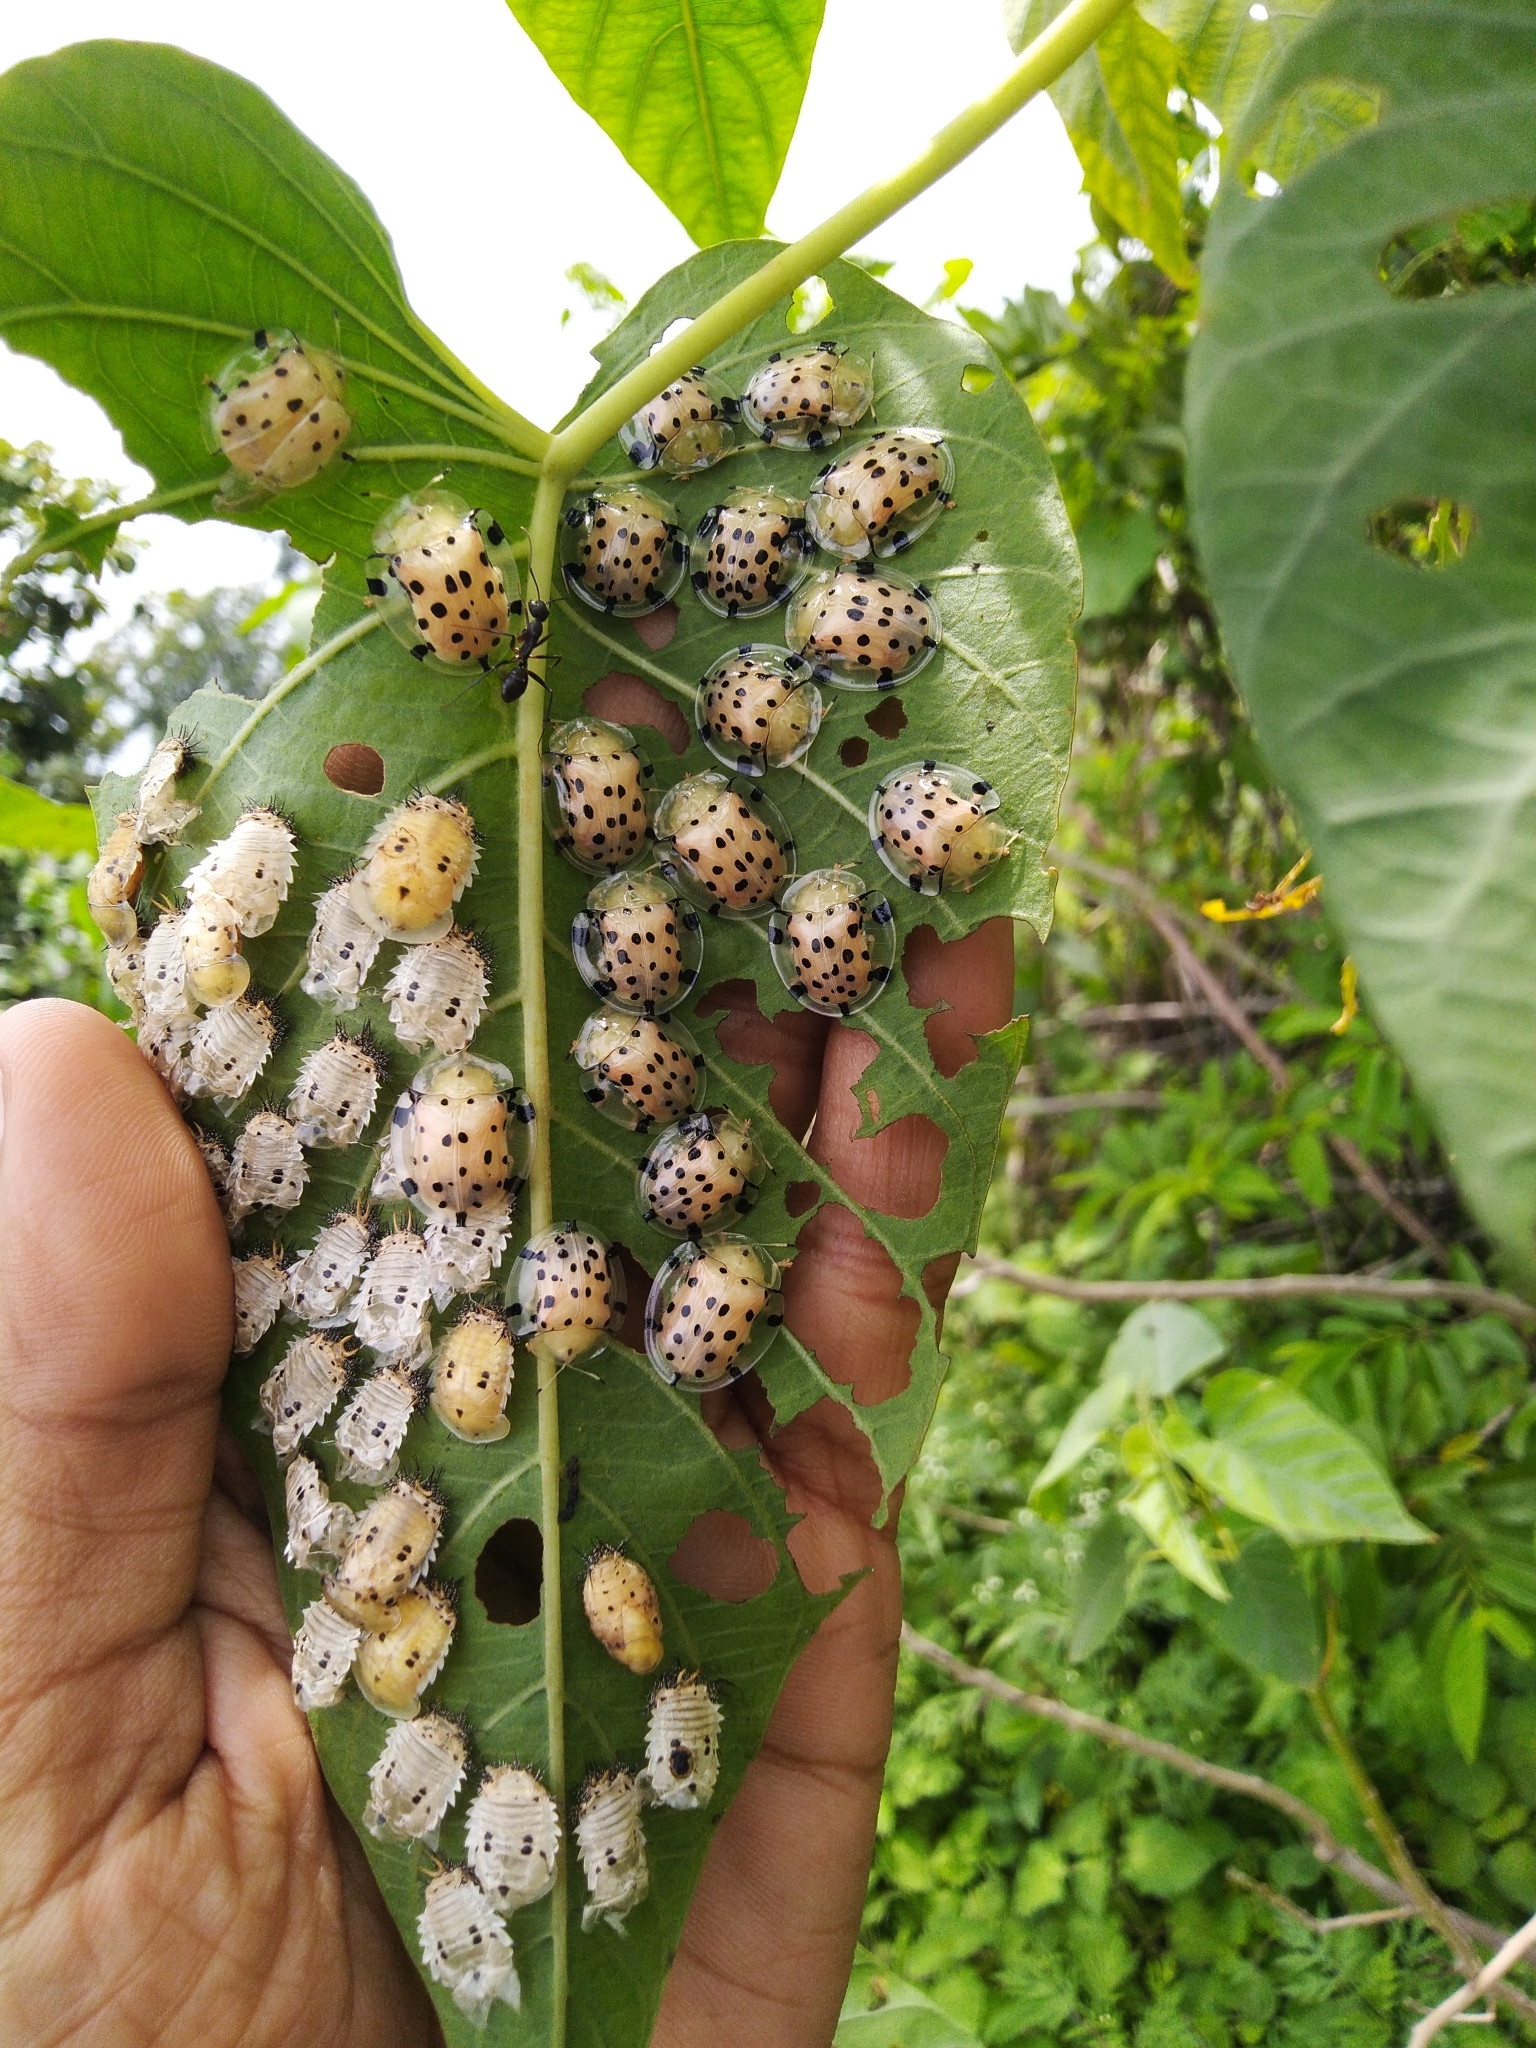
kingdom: Animalia
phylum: Arthropoda
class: Insecta
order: Coleoptera
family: Chrysomelidae
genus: Aspidimorpha
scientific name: Aspidimorpha miliaris
